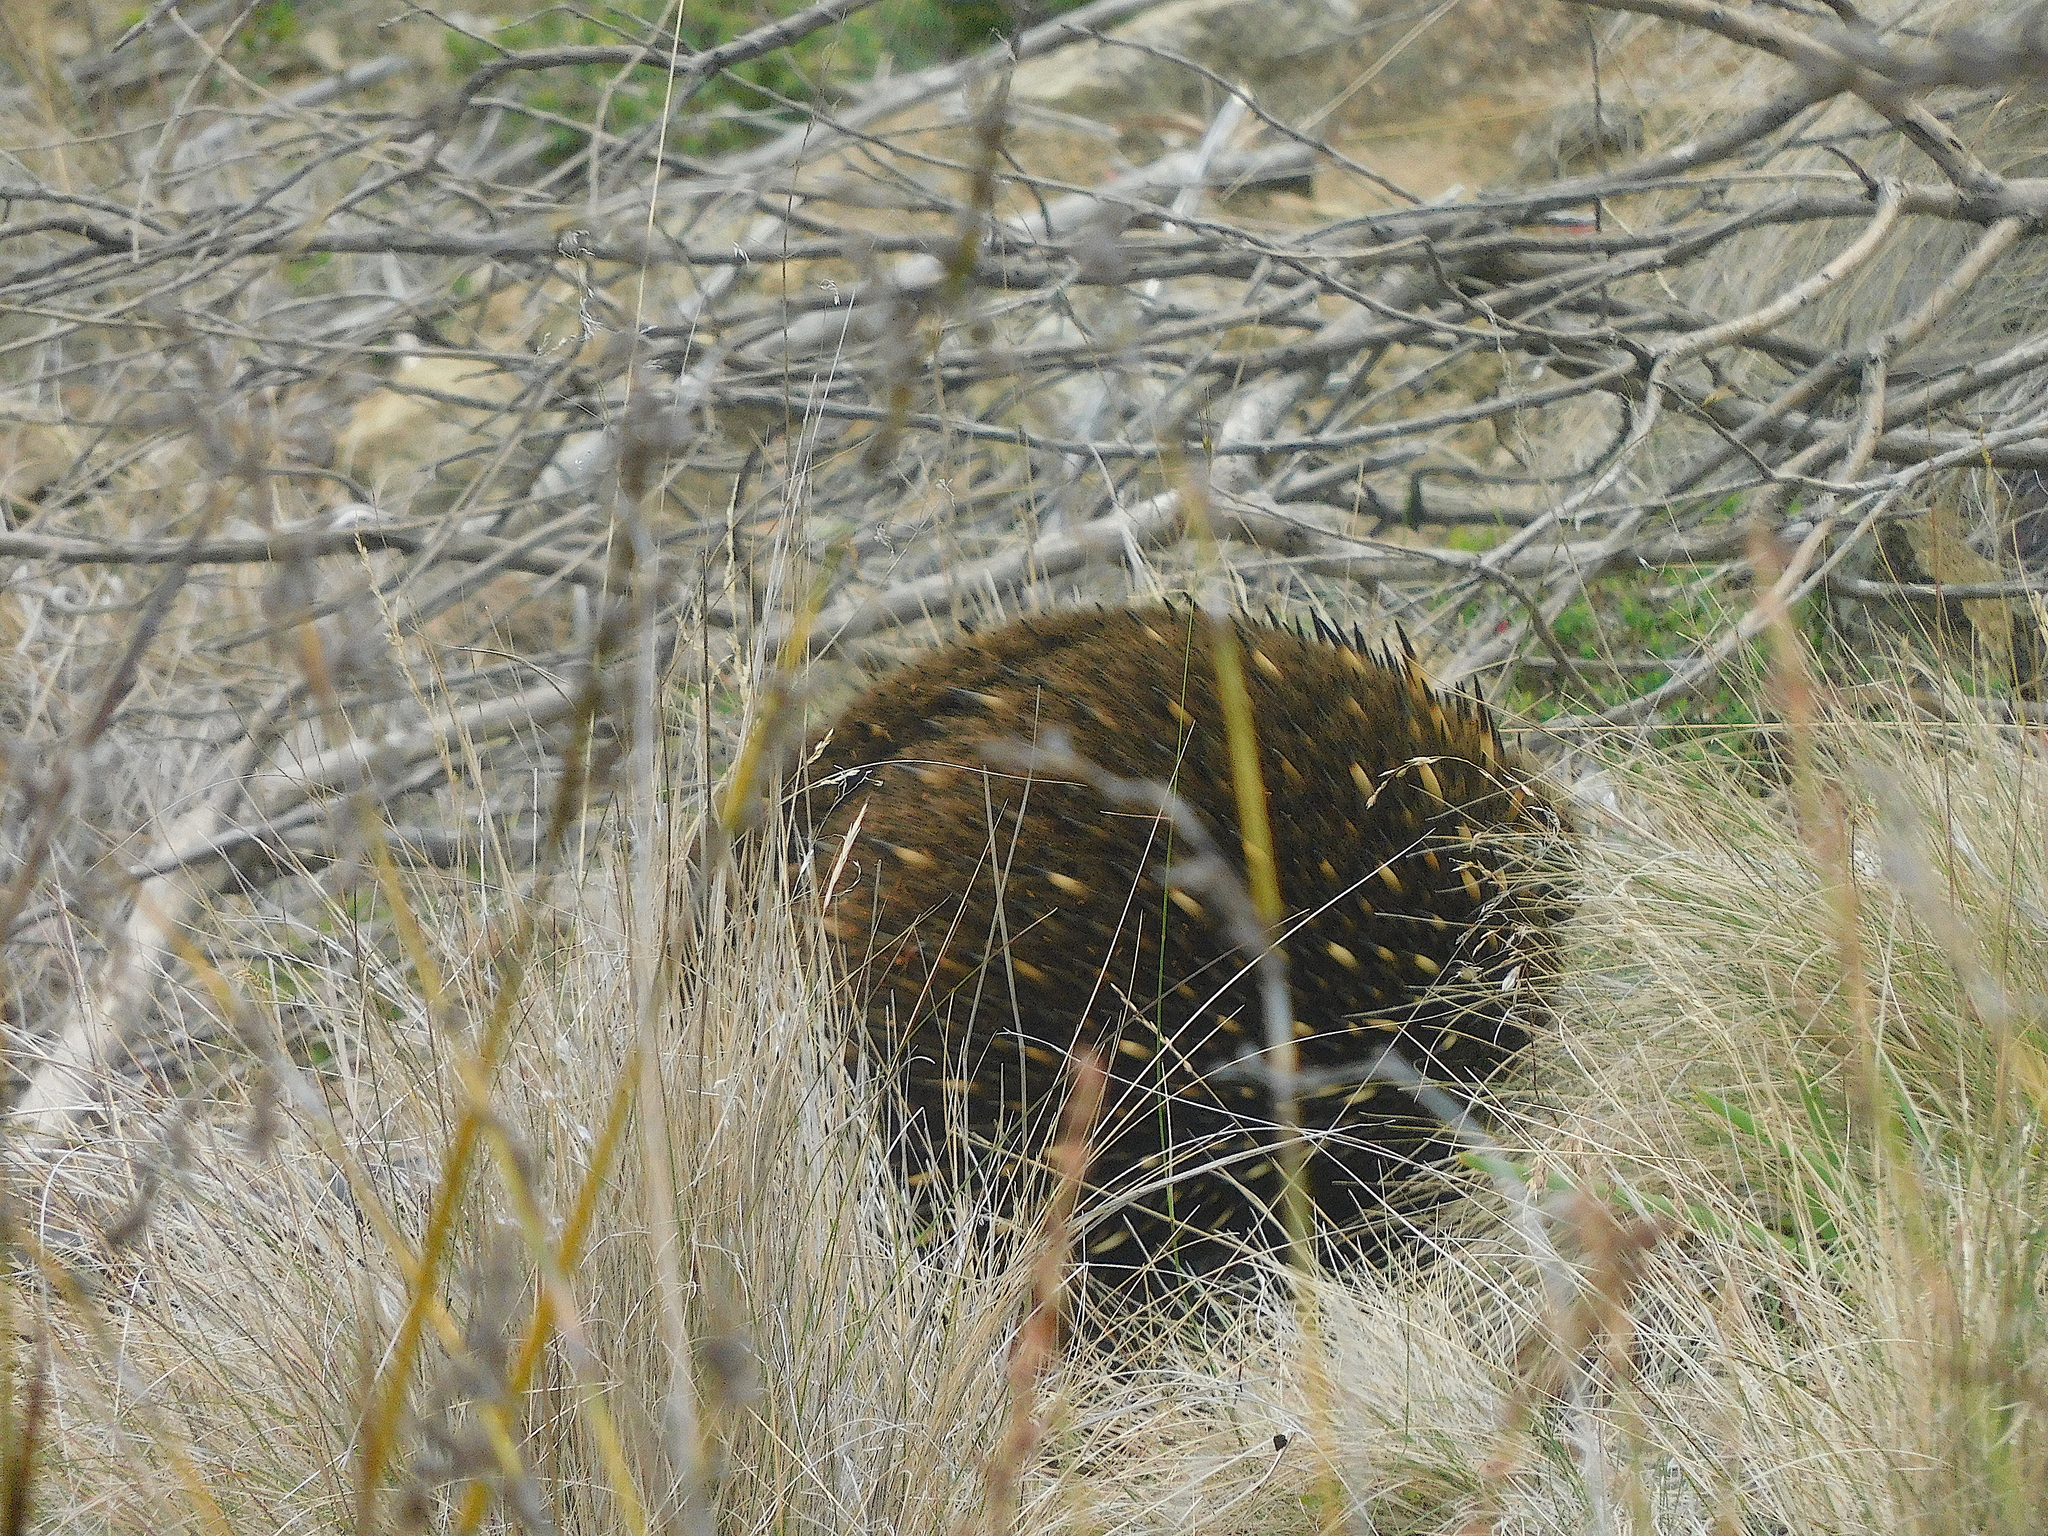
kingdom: Animalia
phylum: Chordata
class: Mammalia
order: Monotremata
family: Tachyglossidae
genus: Tachyglossus
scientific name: Tachyglossus aculeatus
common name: Short-beaked echidna
